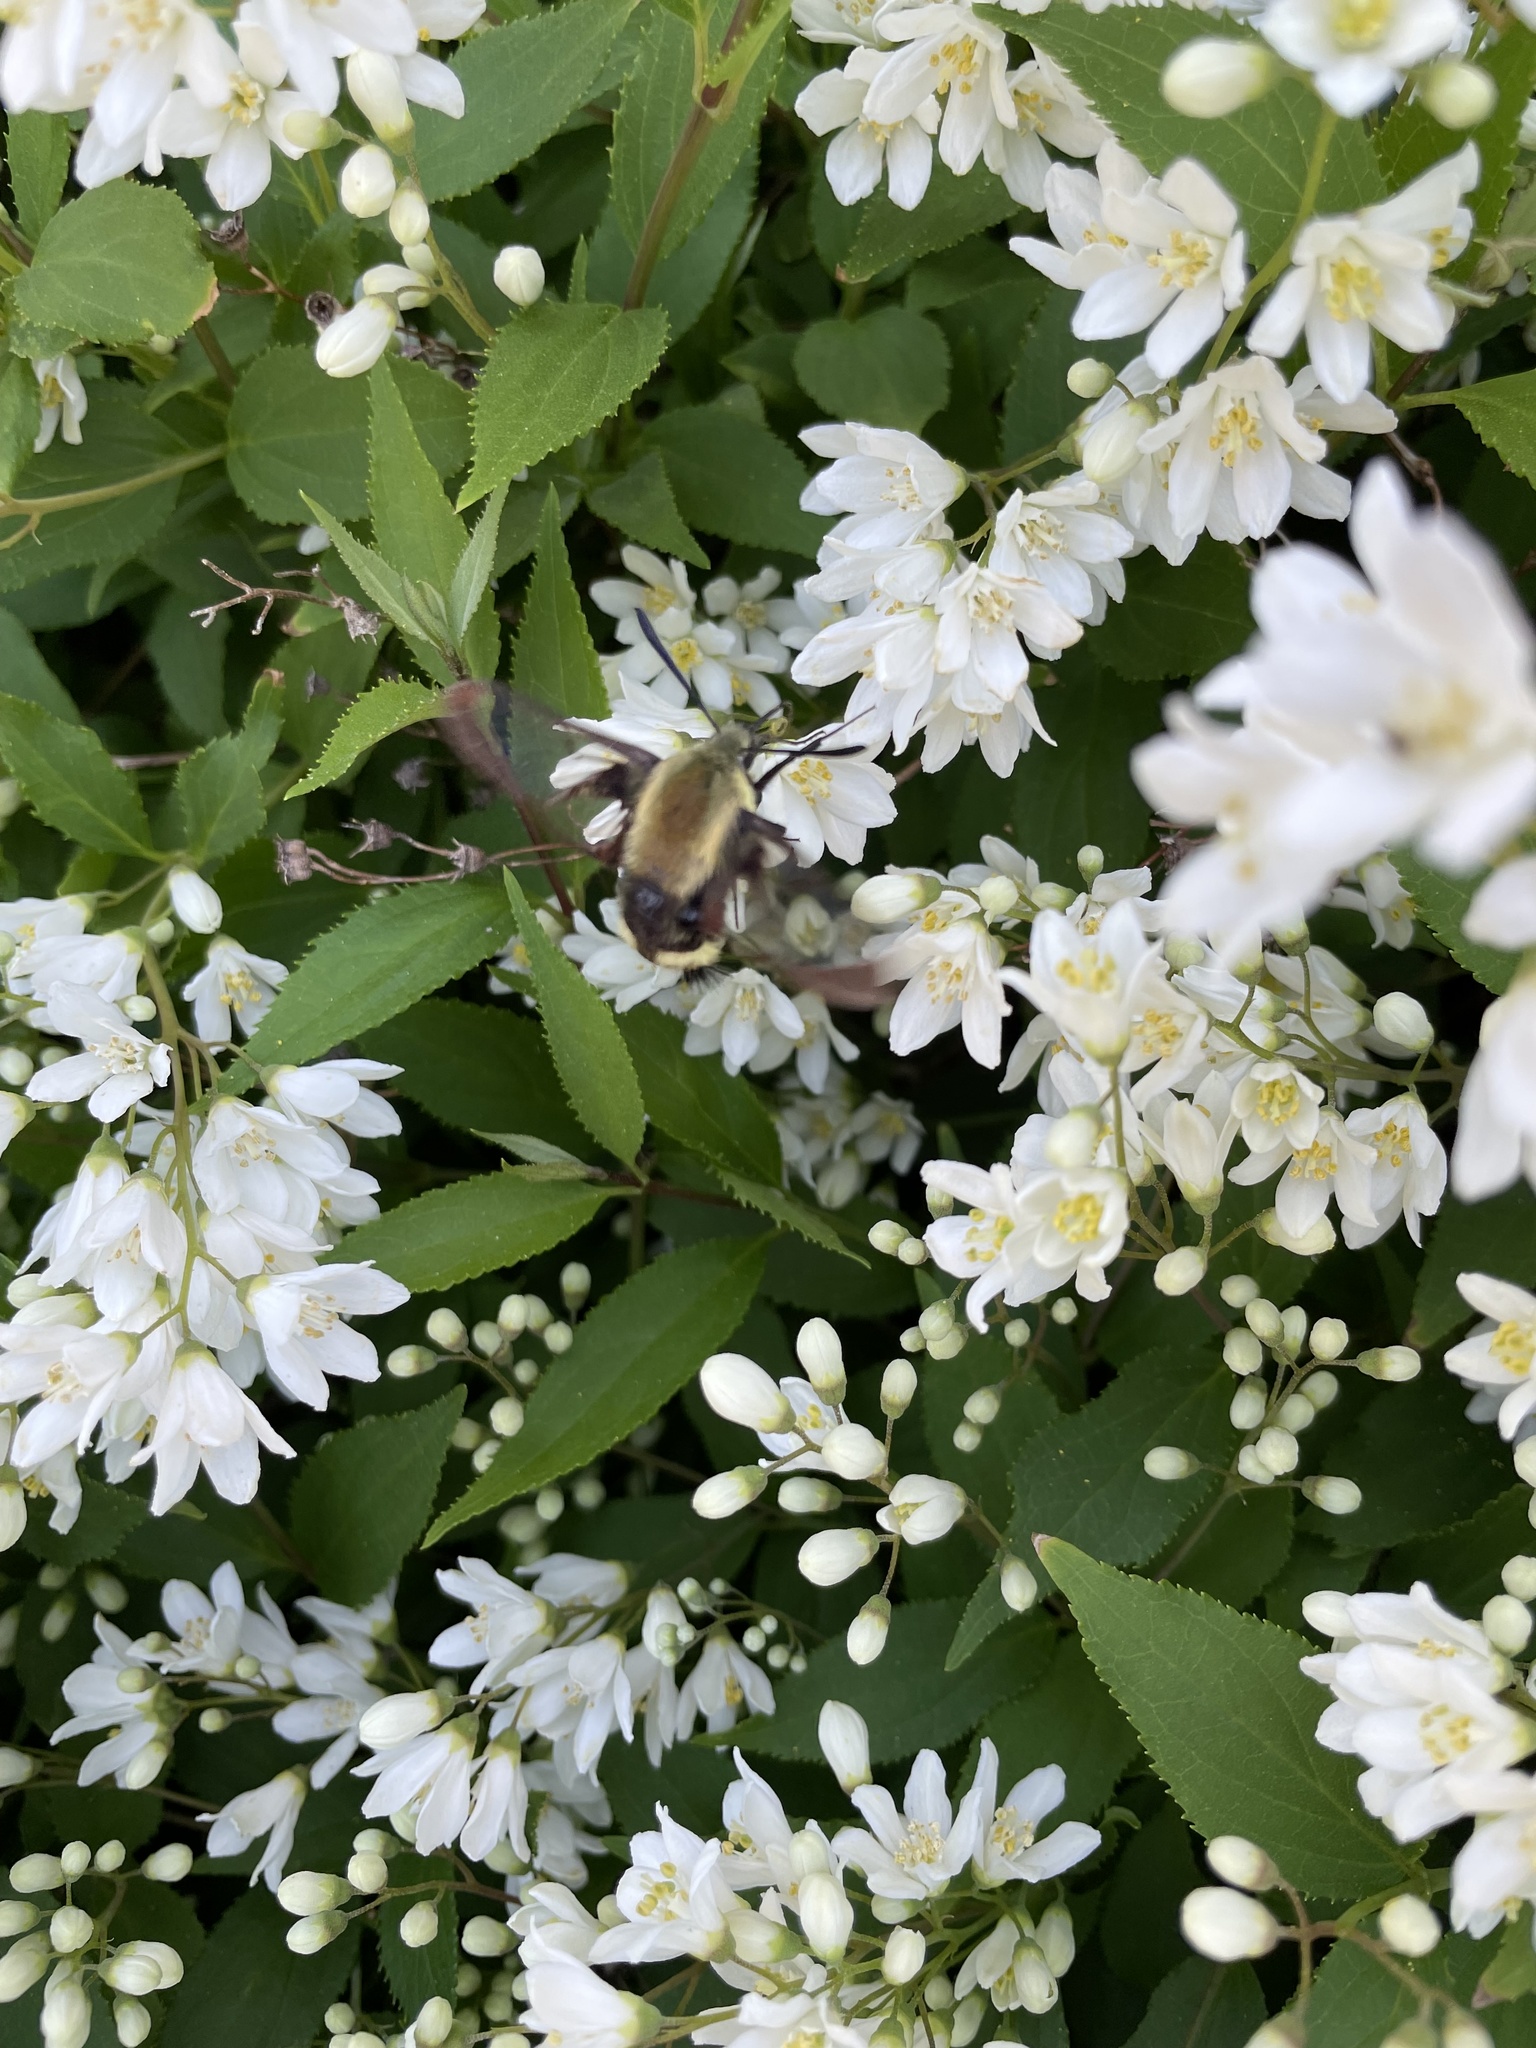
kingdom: Animalia
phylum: Arthropoda
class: Insecta
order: Lepidoptera
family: Sphingidae
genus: Hemaris
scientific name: Hemaris diffinis
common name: Bumblebee moth
